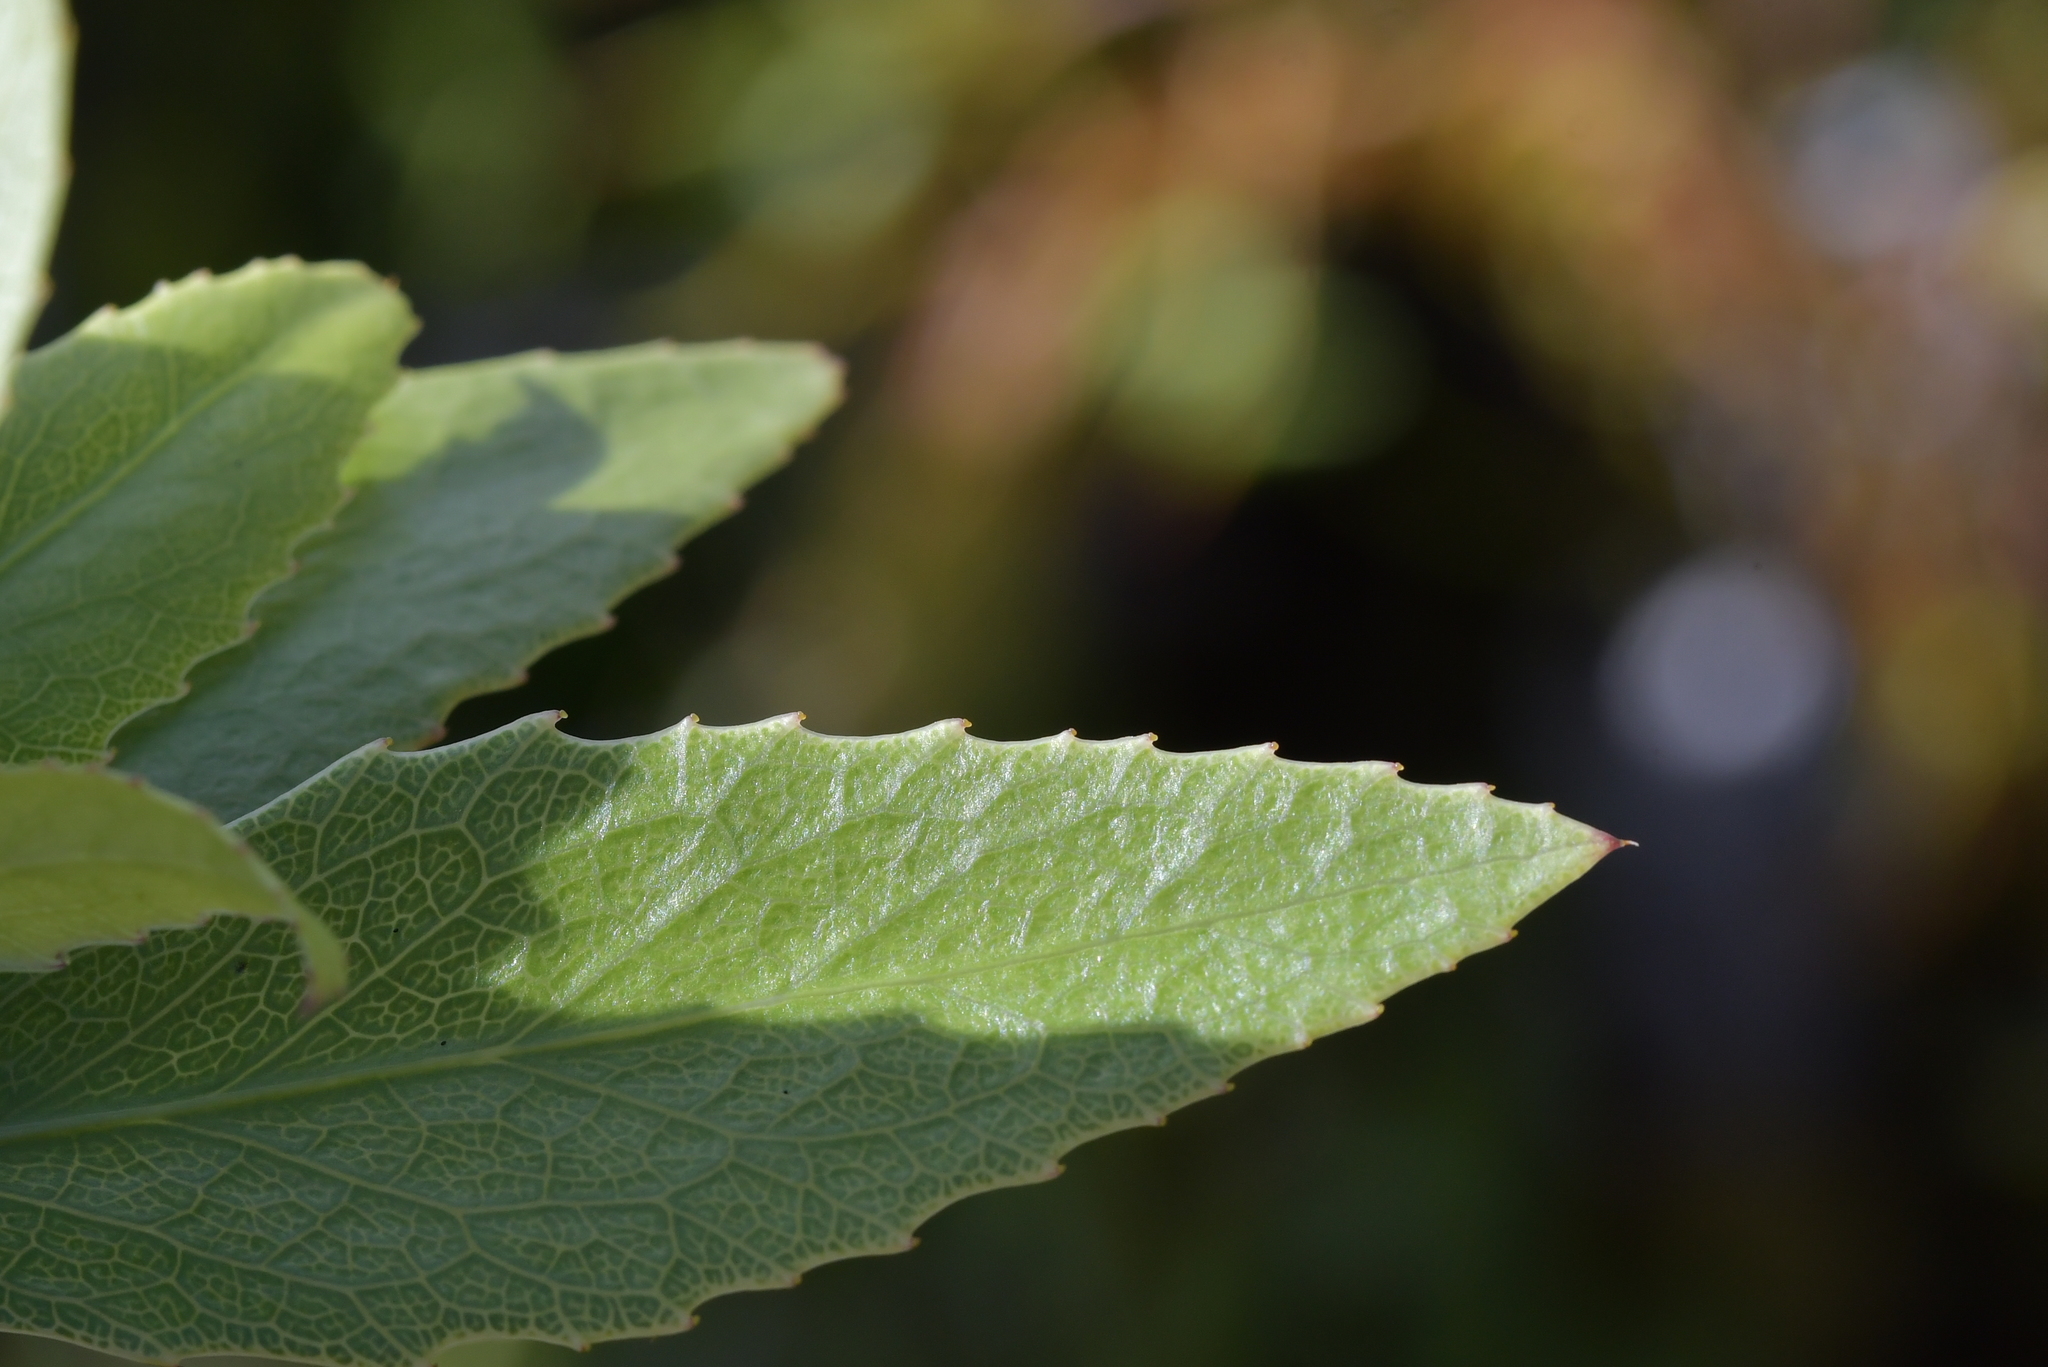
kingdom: Plantae
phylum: Tracheophyta
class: Magnoliopsida
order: Malpighiales
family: Violaceae
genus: Melicytus
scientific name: Melicytus chathamicus
